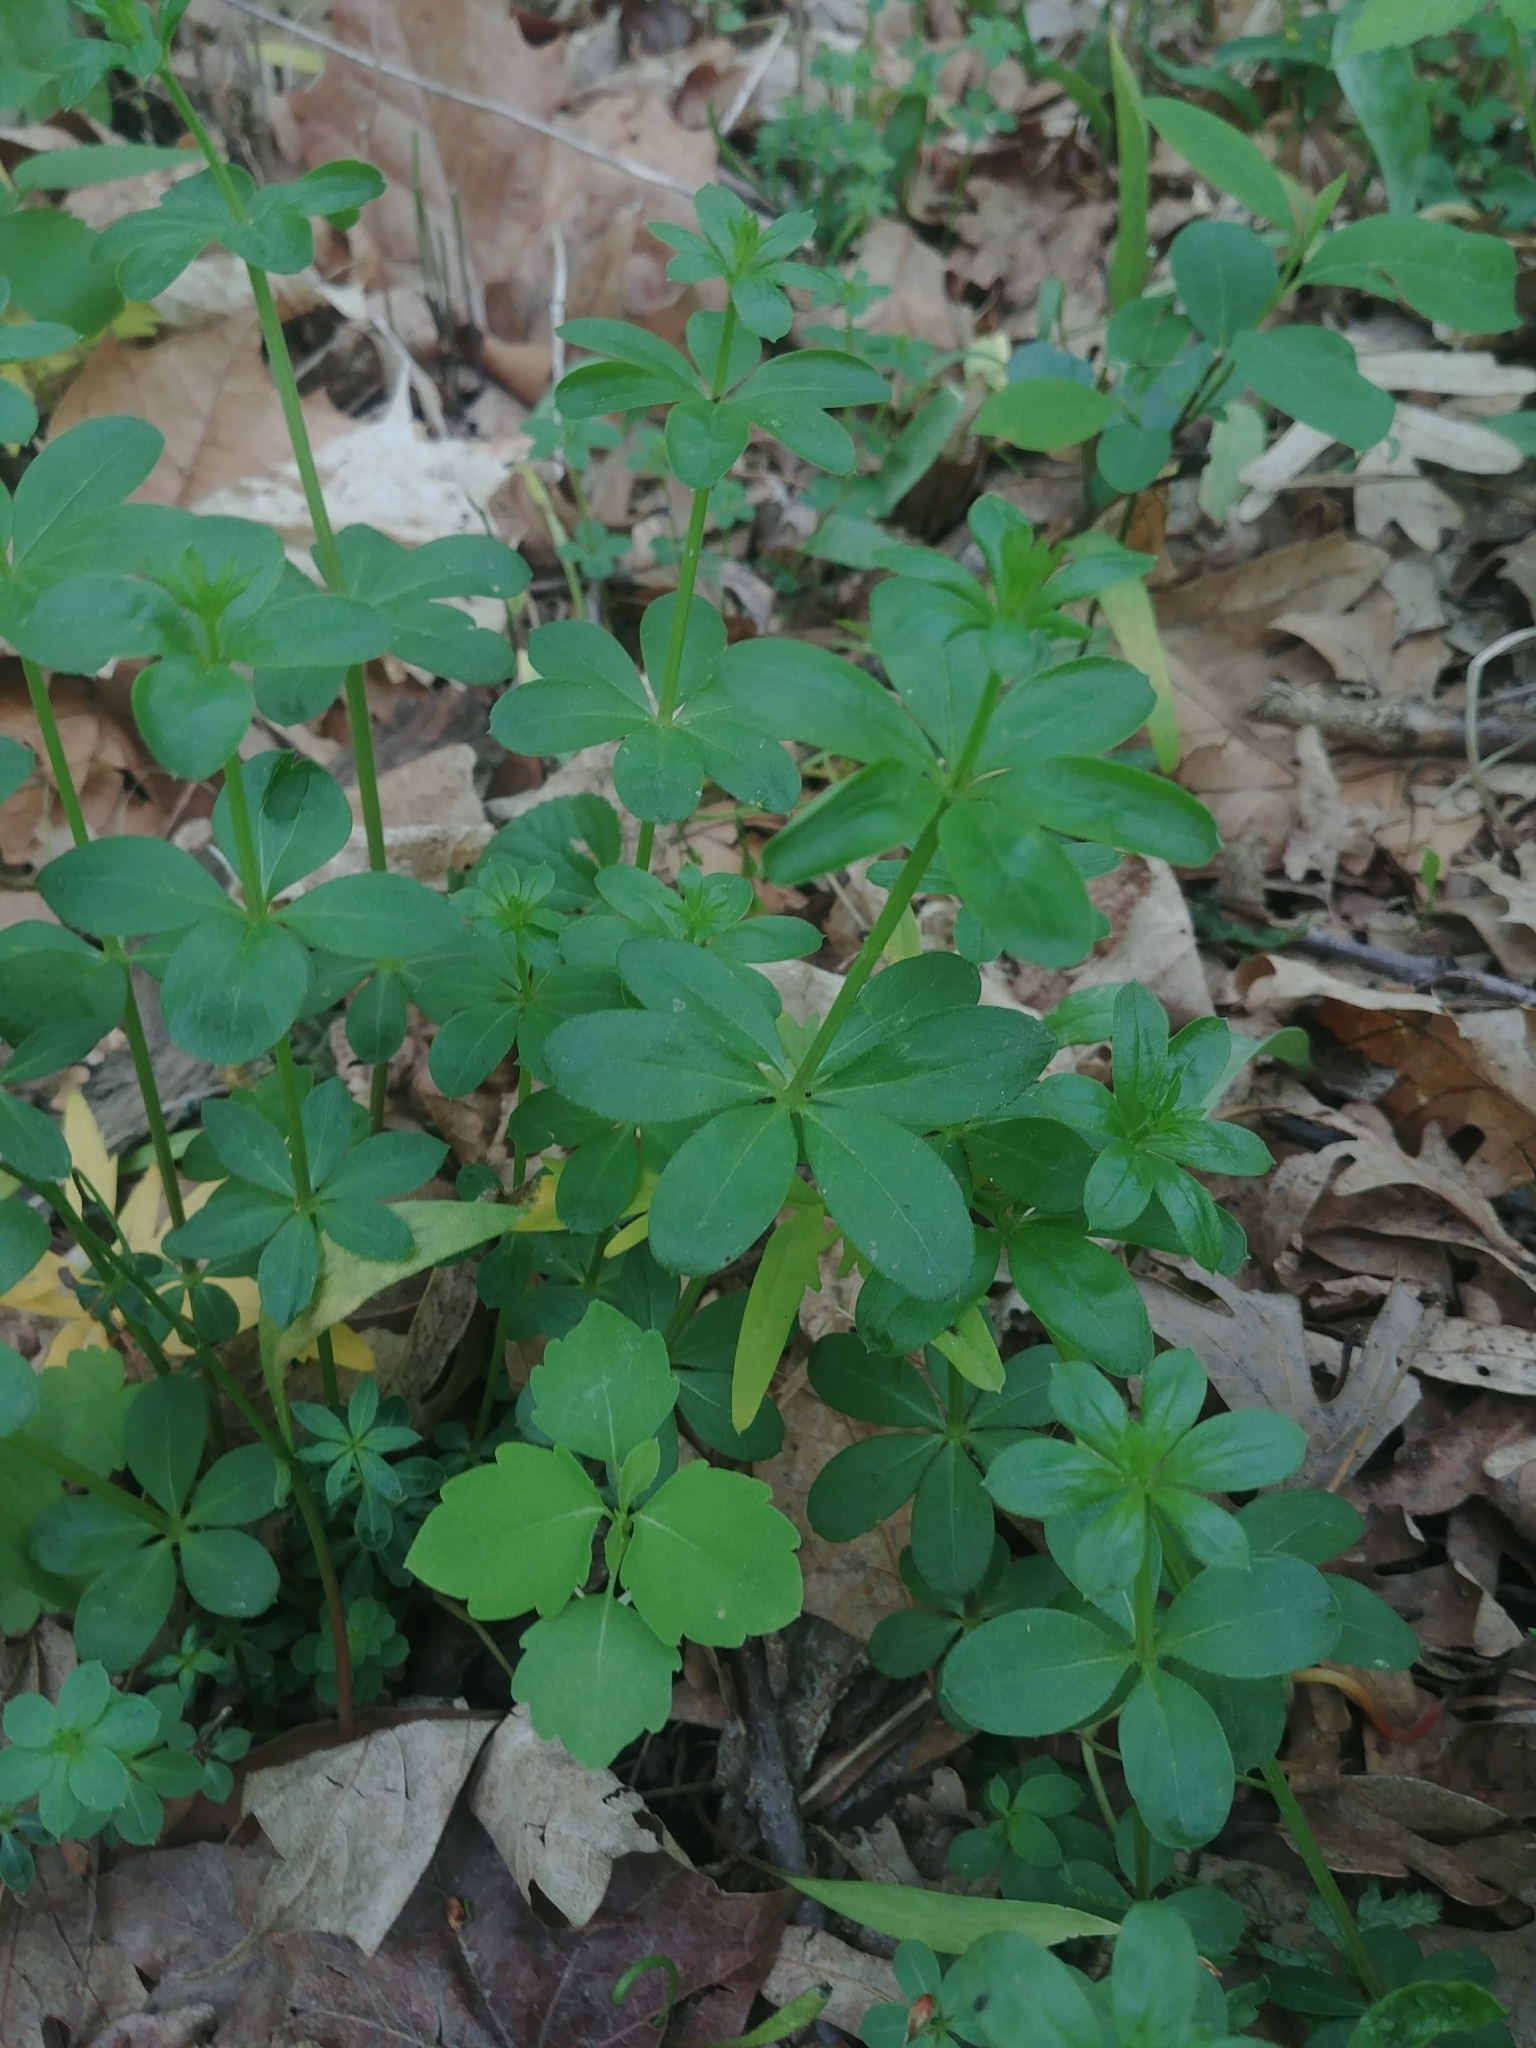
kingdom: Plantae
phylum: Tracheophyta
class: Magnoliopsida
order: Gentianales
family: Rubiaceae
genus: Galium
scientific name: Galium triflorum
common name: Fragrant bedstraw
